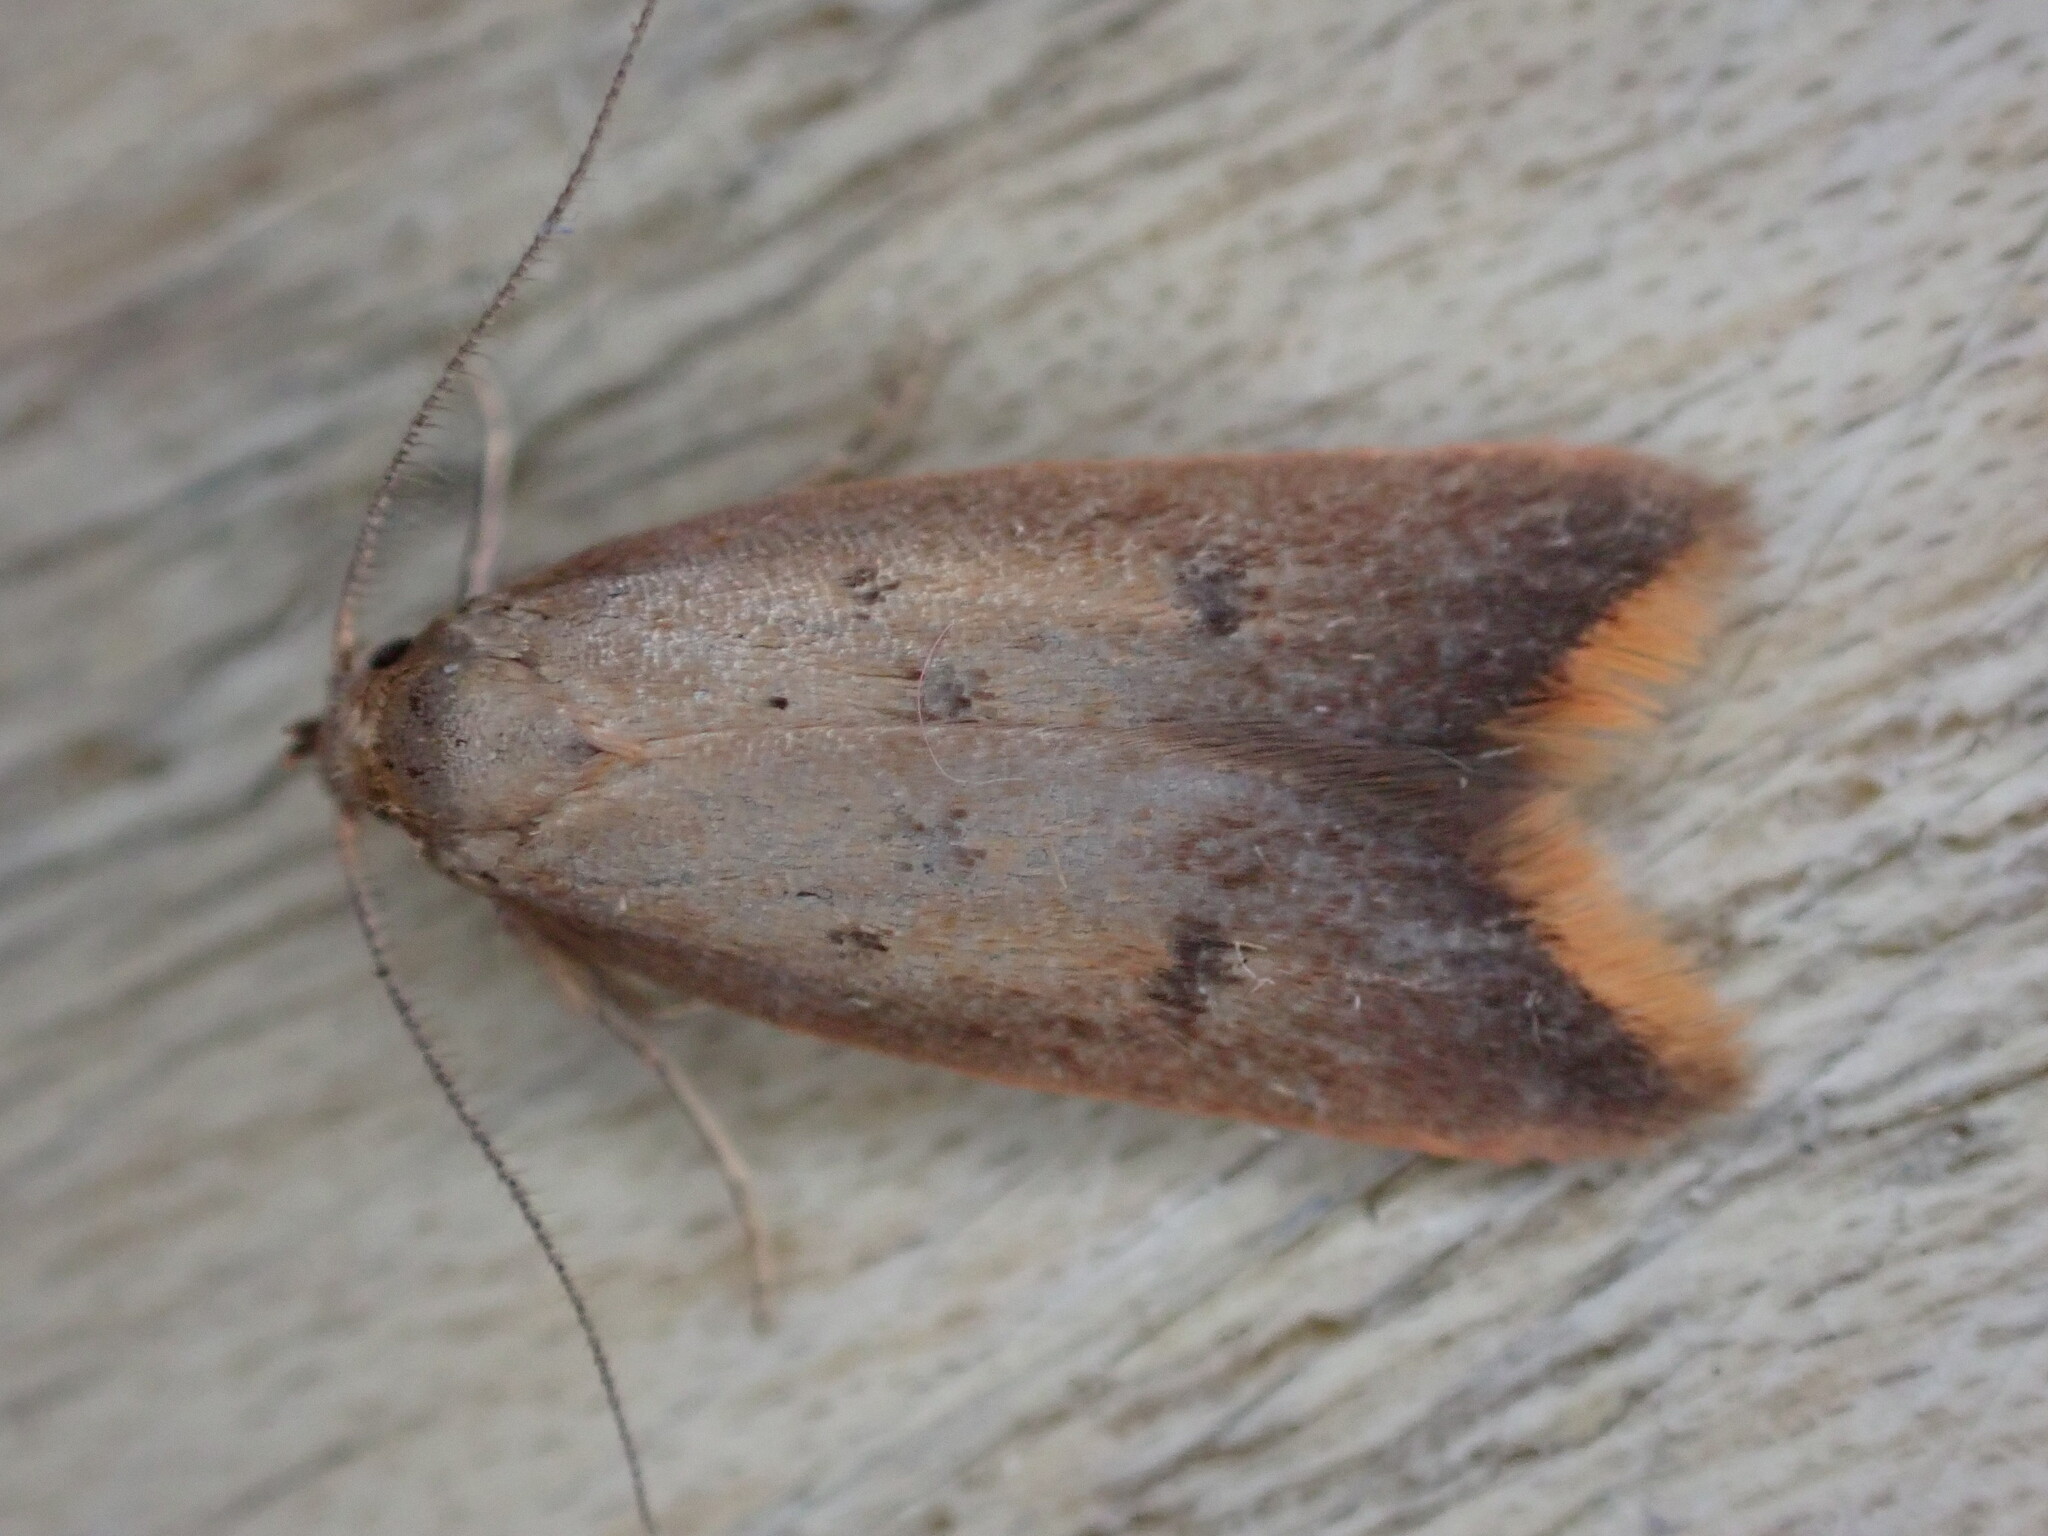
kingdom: Animalia
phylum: Arthropoda
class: Insecta
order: Lepidoptera
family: Oecophoridae
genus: Tachystola
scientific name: Tachystola acroxantha
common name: Ruddy streak
